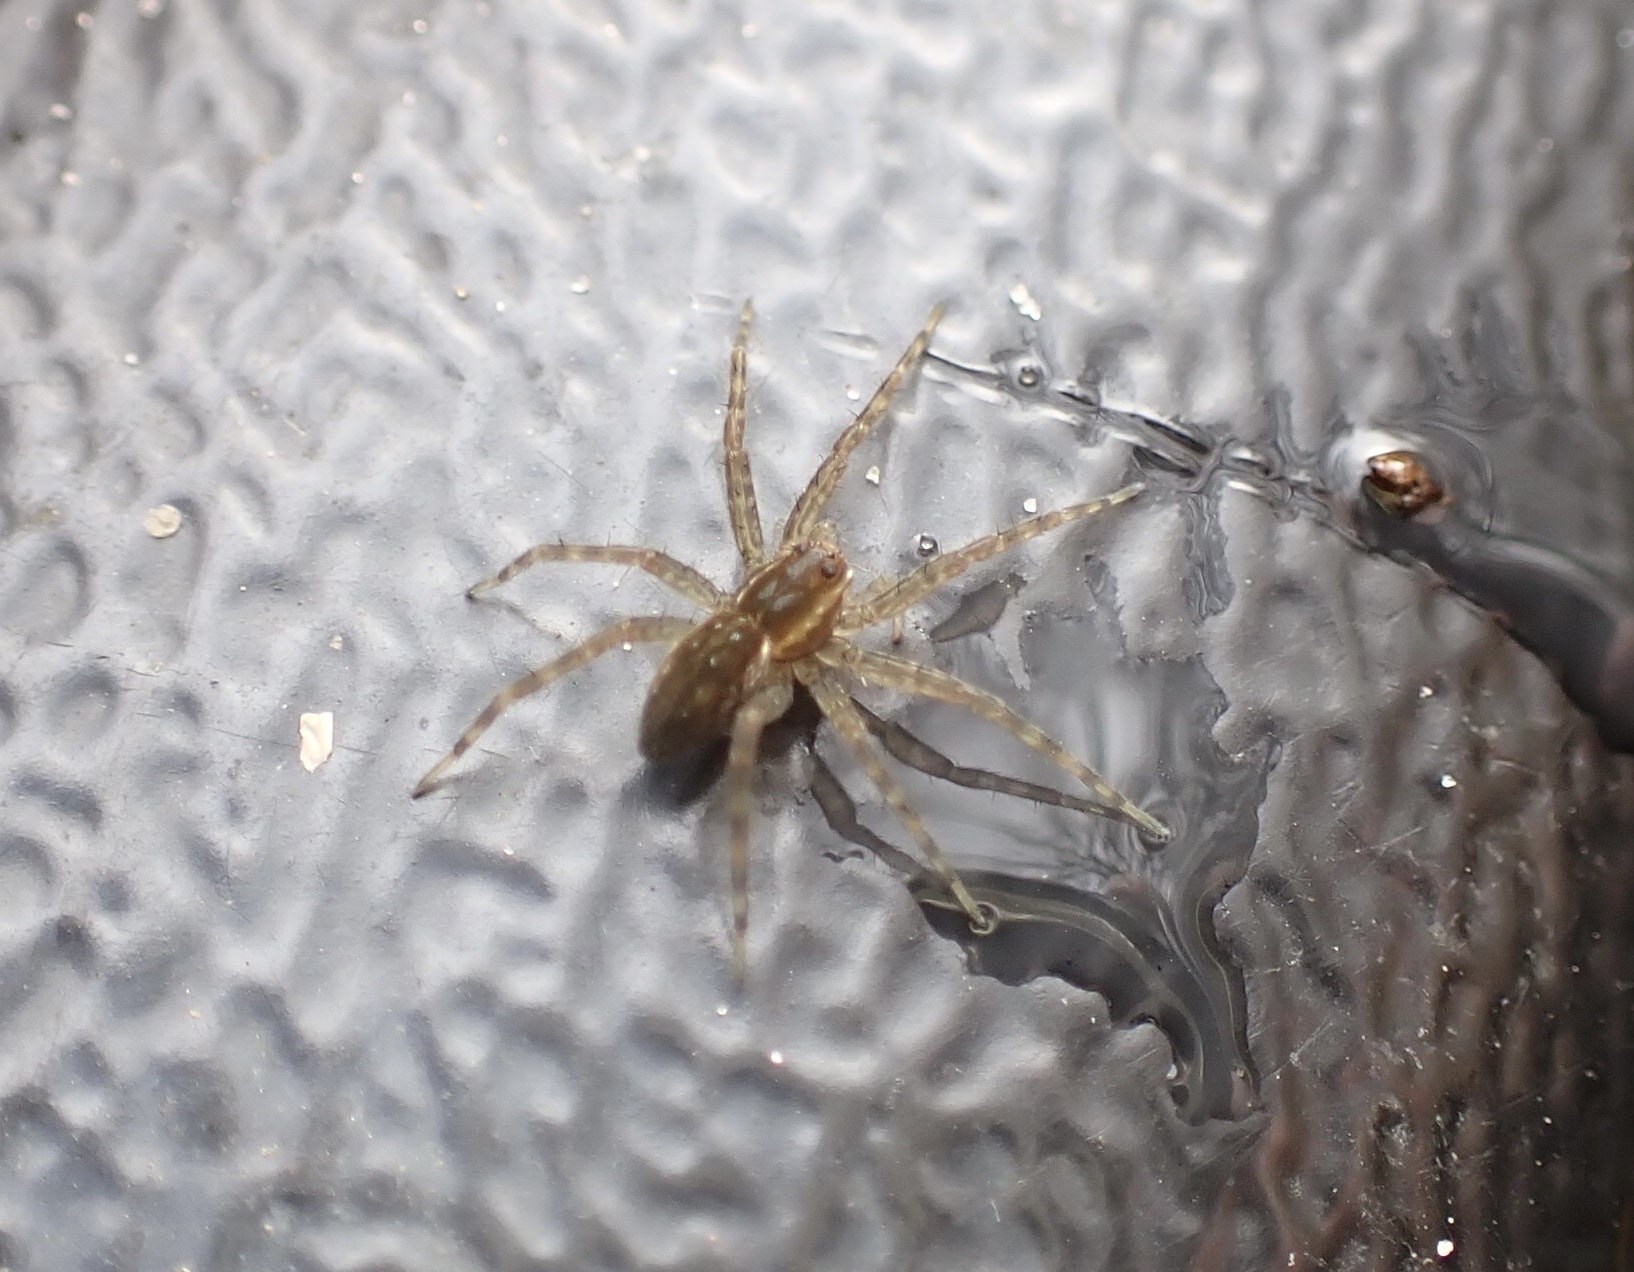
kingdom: Animalia
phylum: Arthropoda
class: Arachnida
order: Araneae
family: Pisauridae
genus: Dolomedes
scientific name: Dolomedes triton
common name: Six-spotted fishing spider
